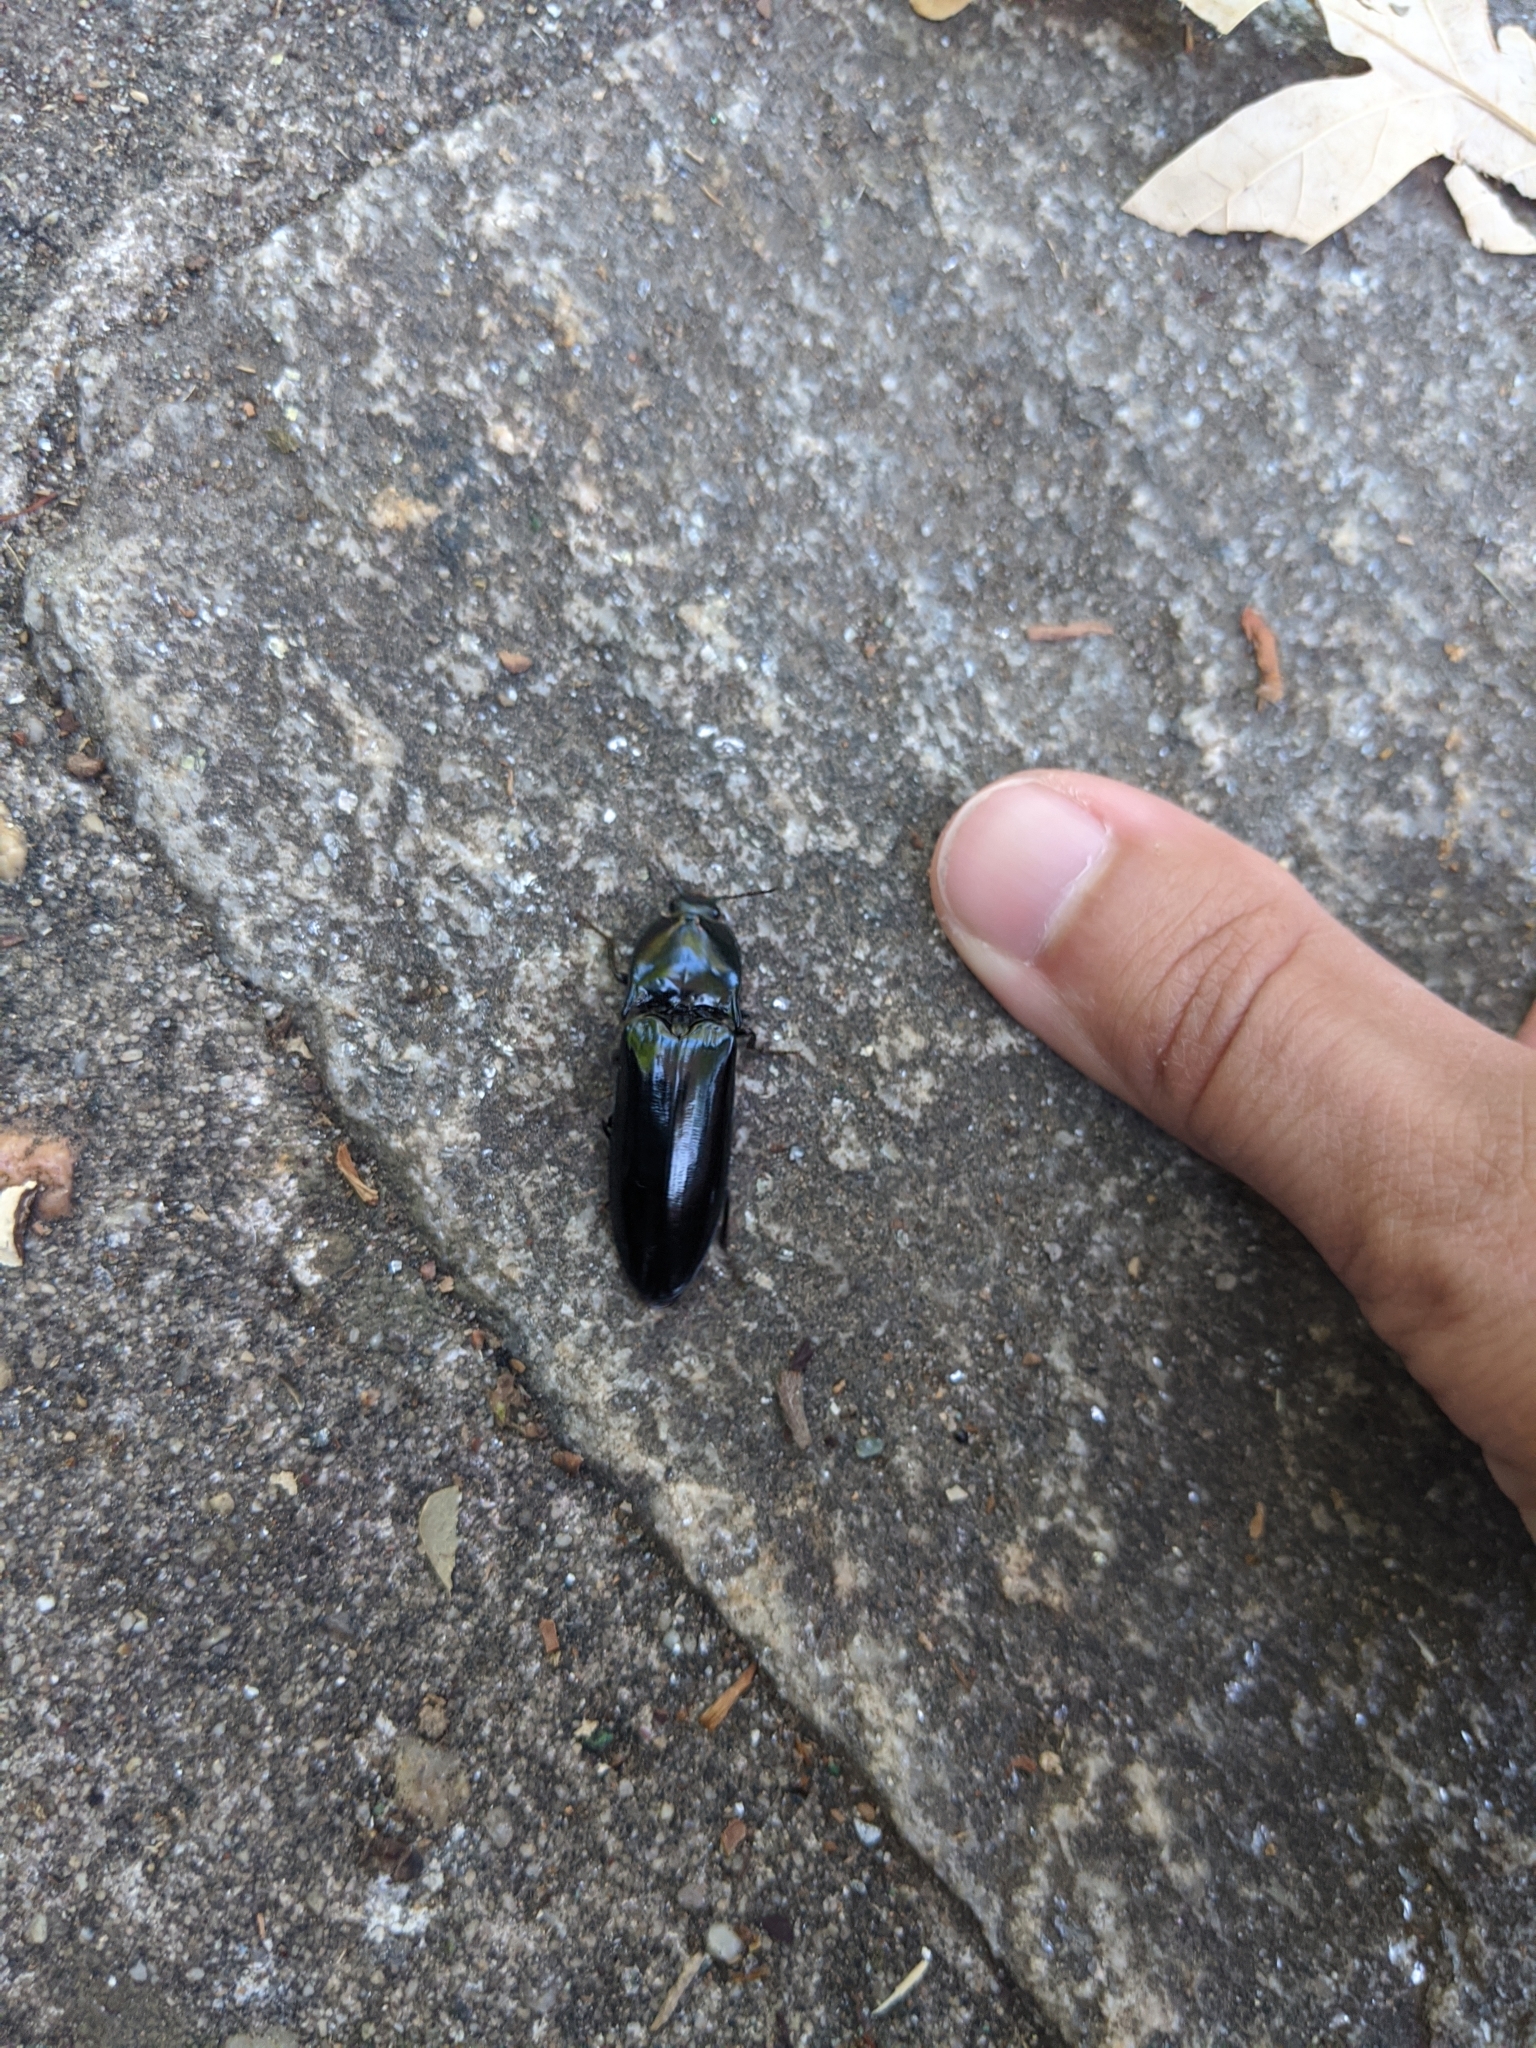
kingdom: Animalia
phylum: Arthropoda
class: Insecta
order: Coleoptera
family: Elateridae
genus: Melanactes
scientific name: Melanactes piceus
